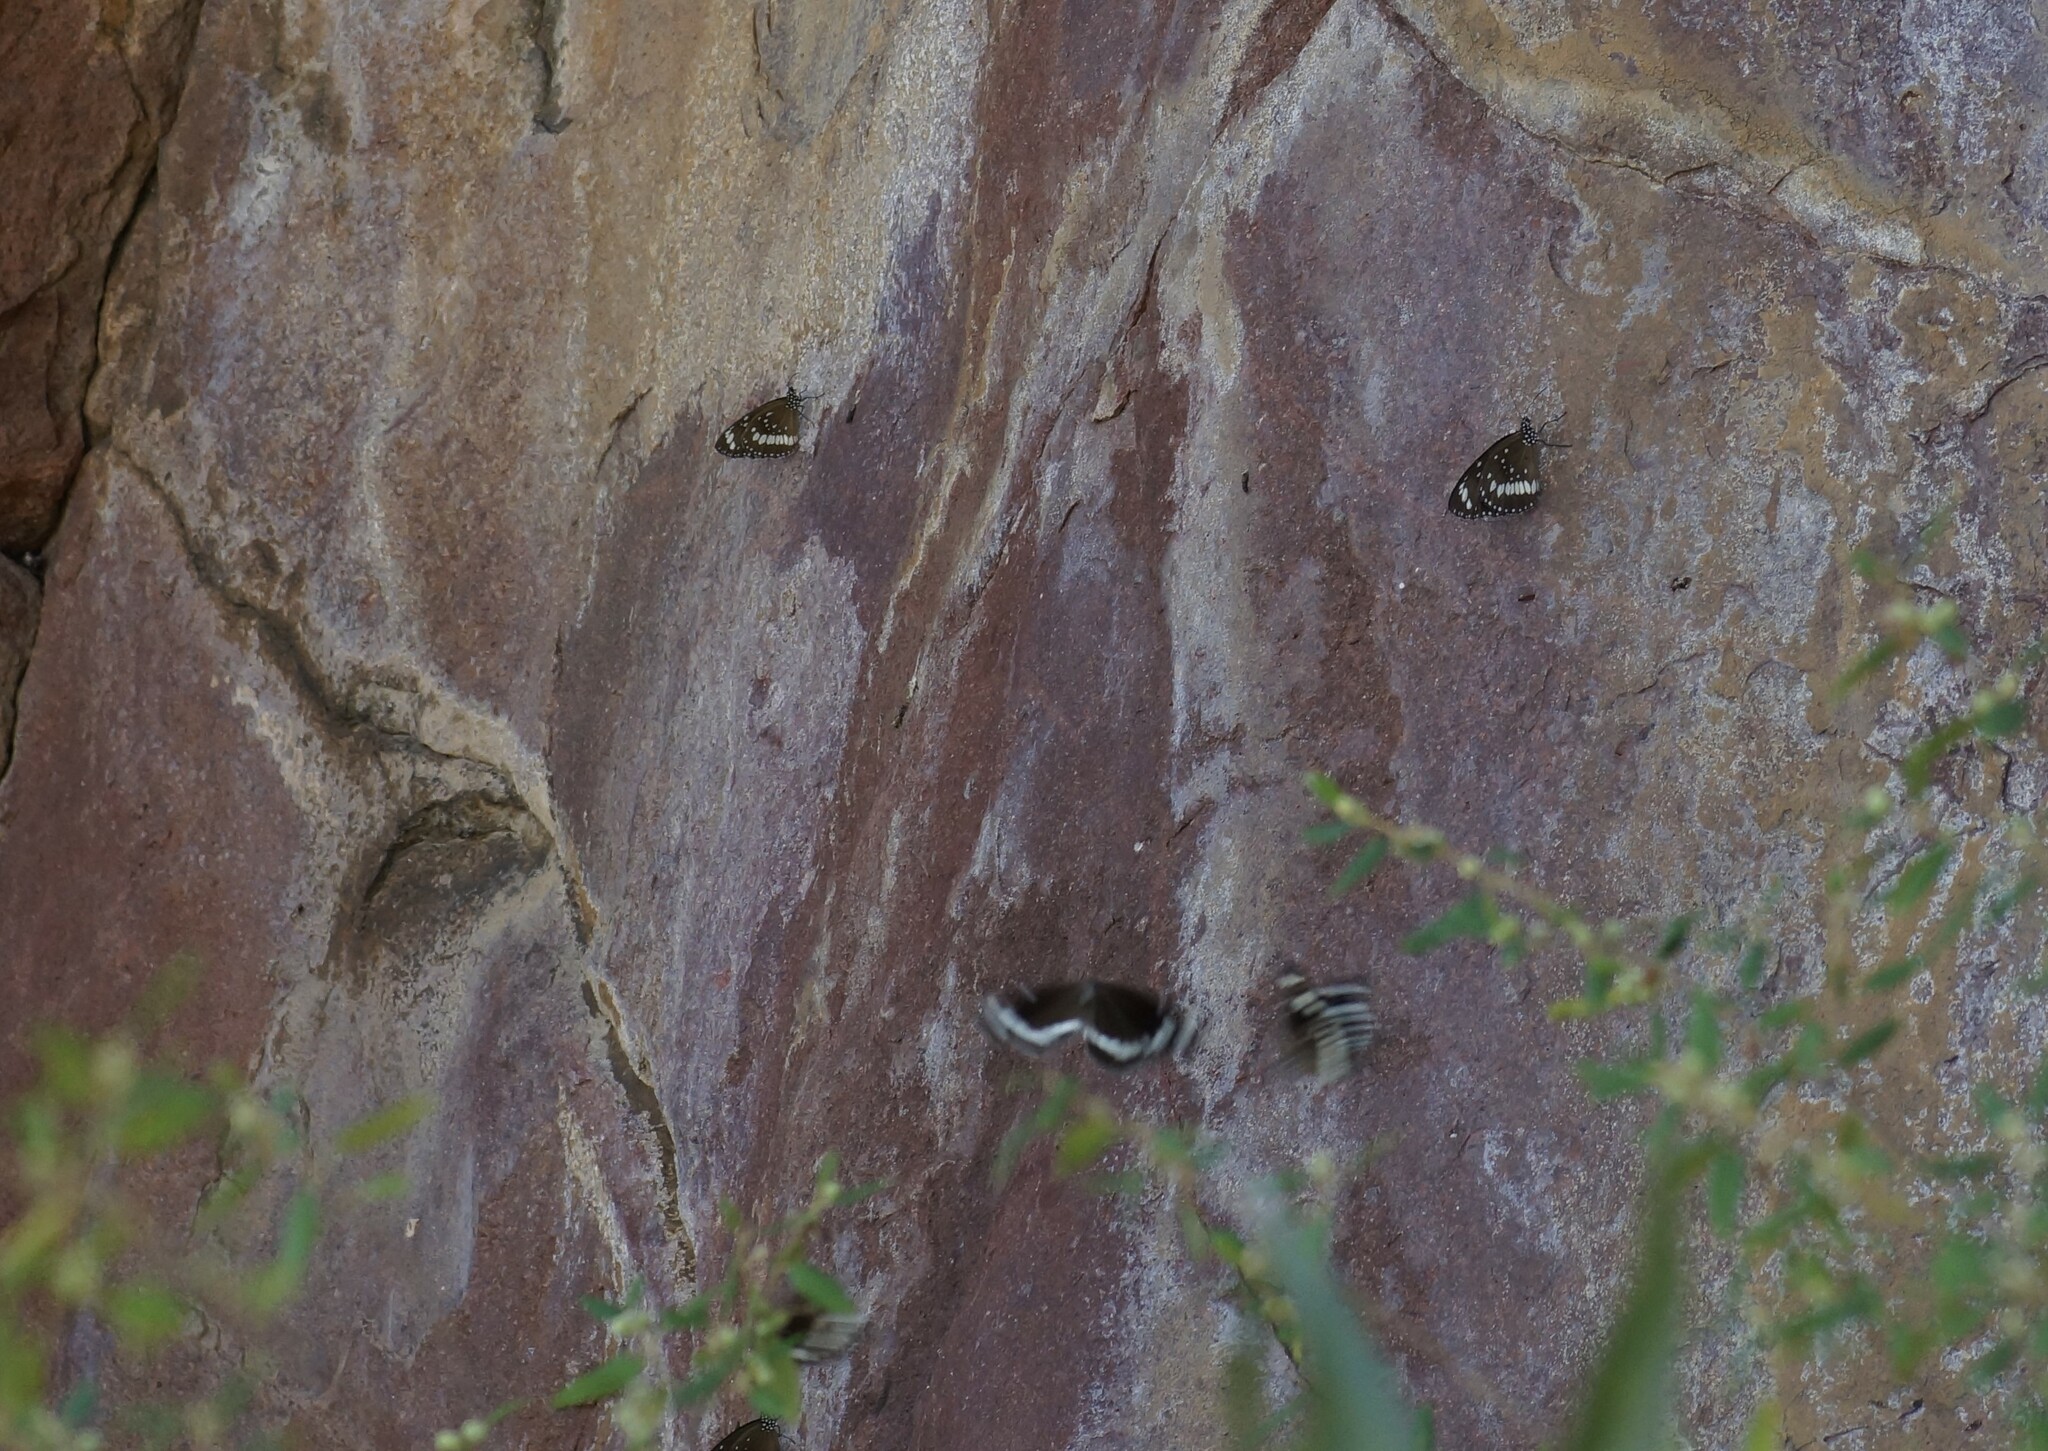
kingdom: Animalia
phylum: Arthropoda
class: Insecta
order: Lepidoptera
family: Nymphalidae
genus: Euploea
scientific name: Euploea core
